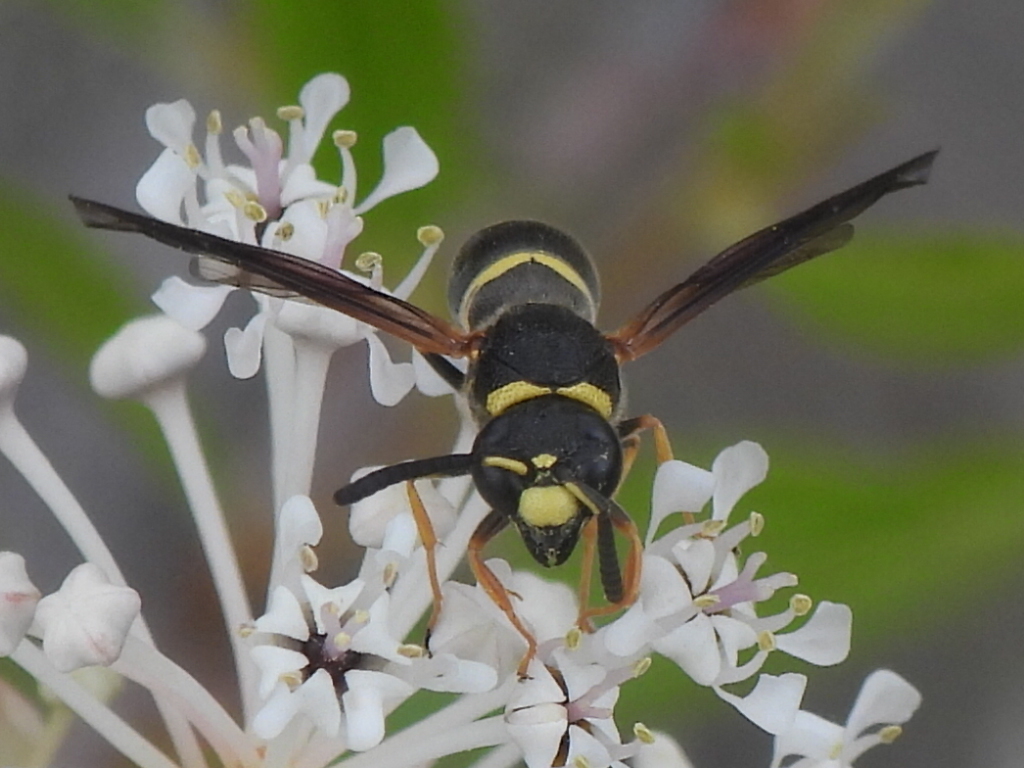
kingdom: Animalia
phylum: Arthropoda
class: Insecta
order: Hymenoptera
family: Eumenidae
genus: Euodynerus
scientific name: Euodynerus foraminatus
